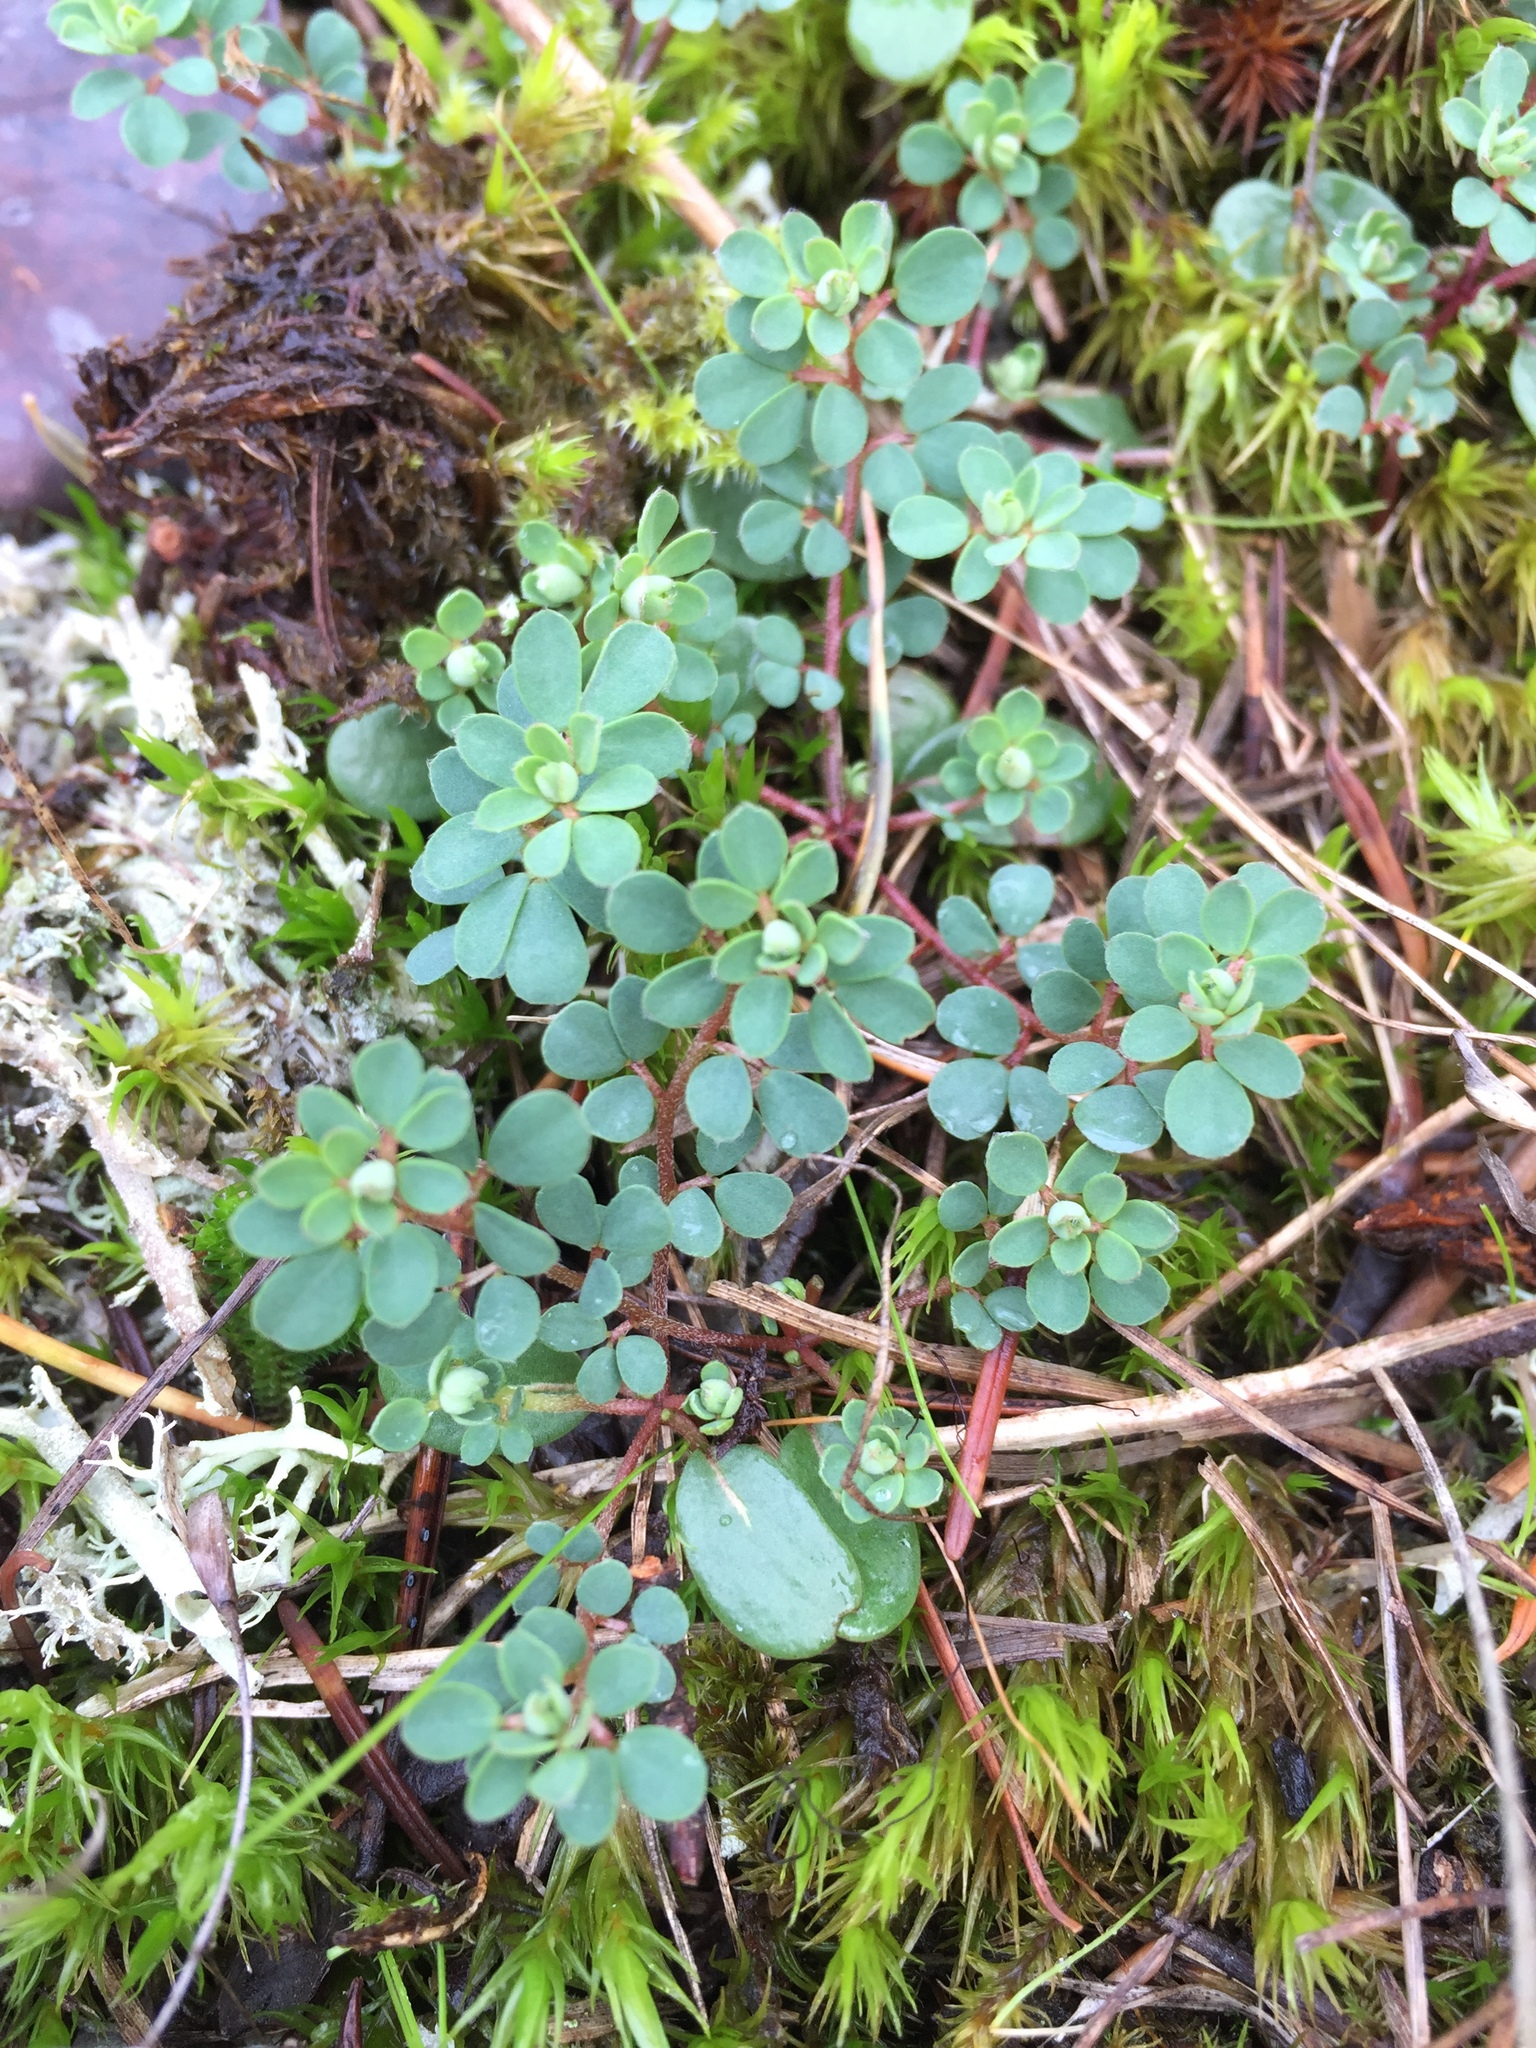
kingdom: Plantae
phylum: Tracheophyta
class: Magnoliopsida
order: Fabales
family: Fabaceae
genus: Acmispon
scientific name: Acmispon parviflorus
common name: Desert deer-vetch
